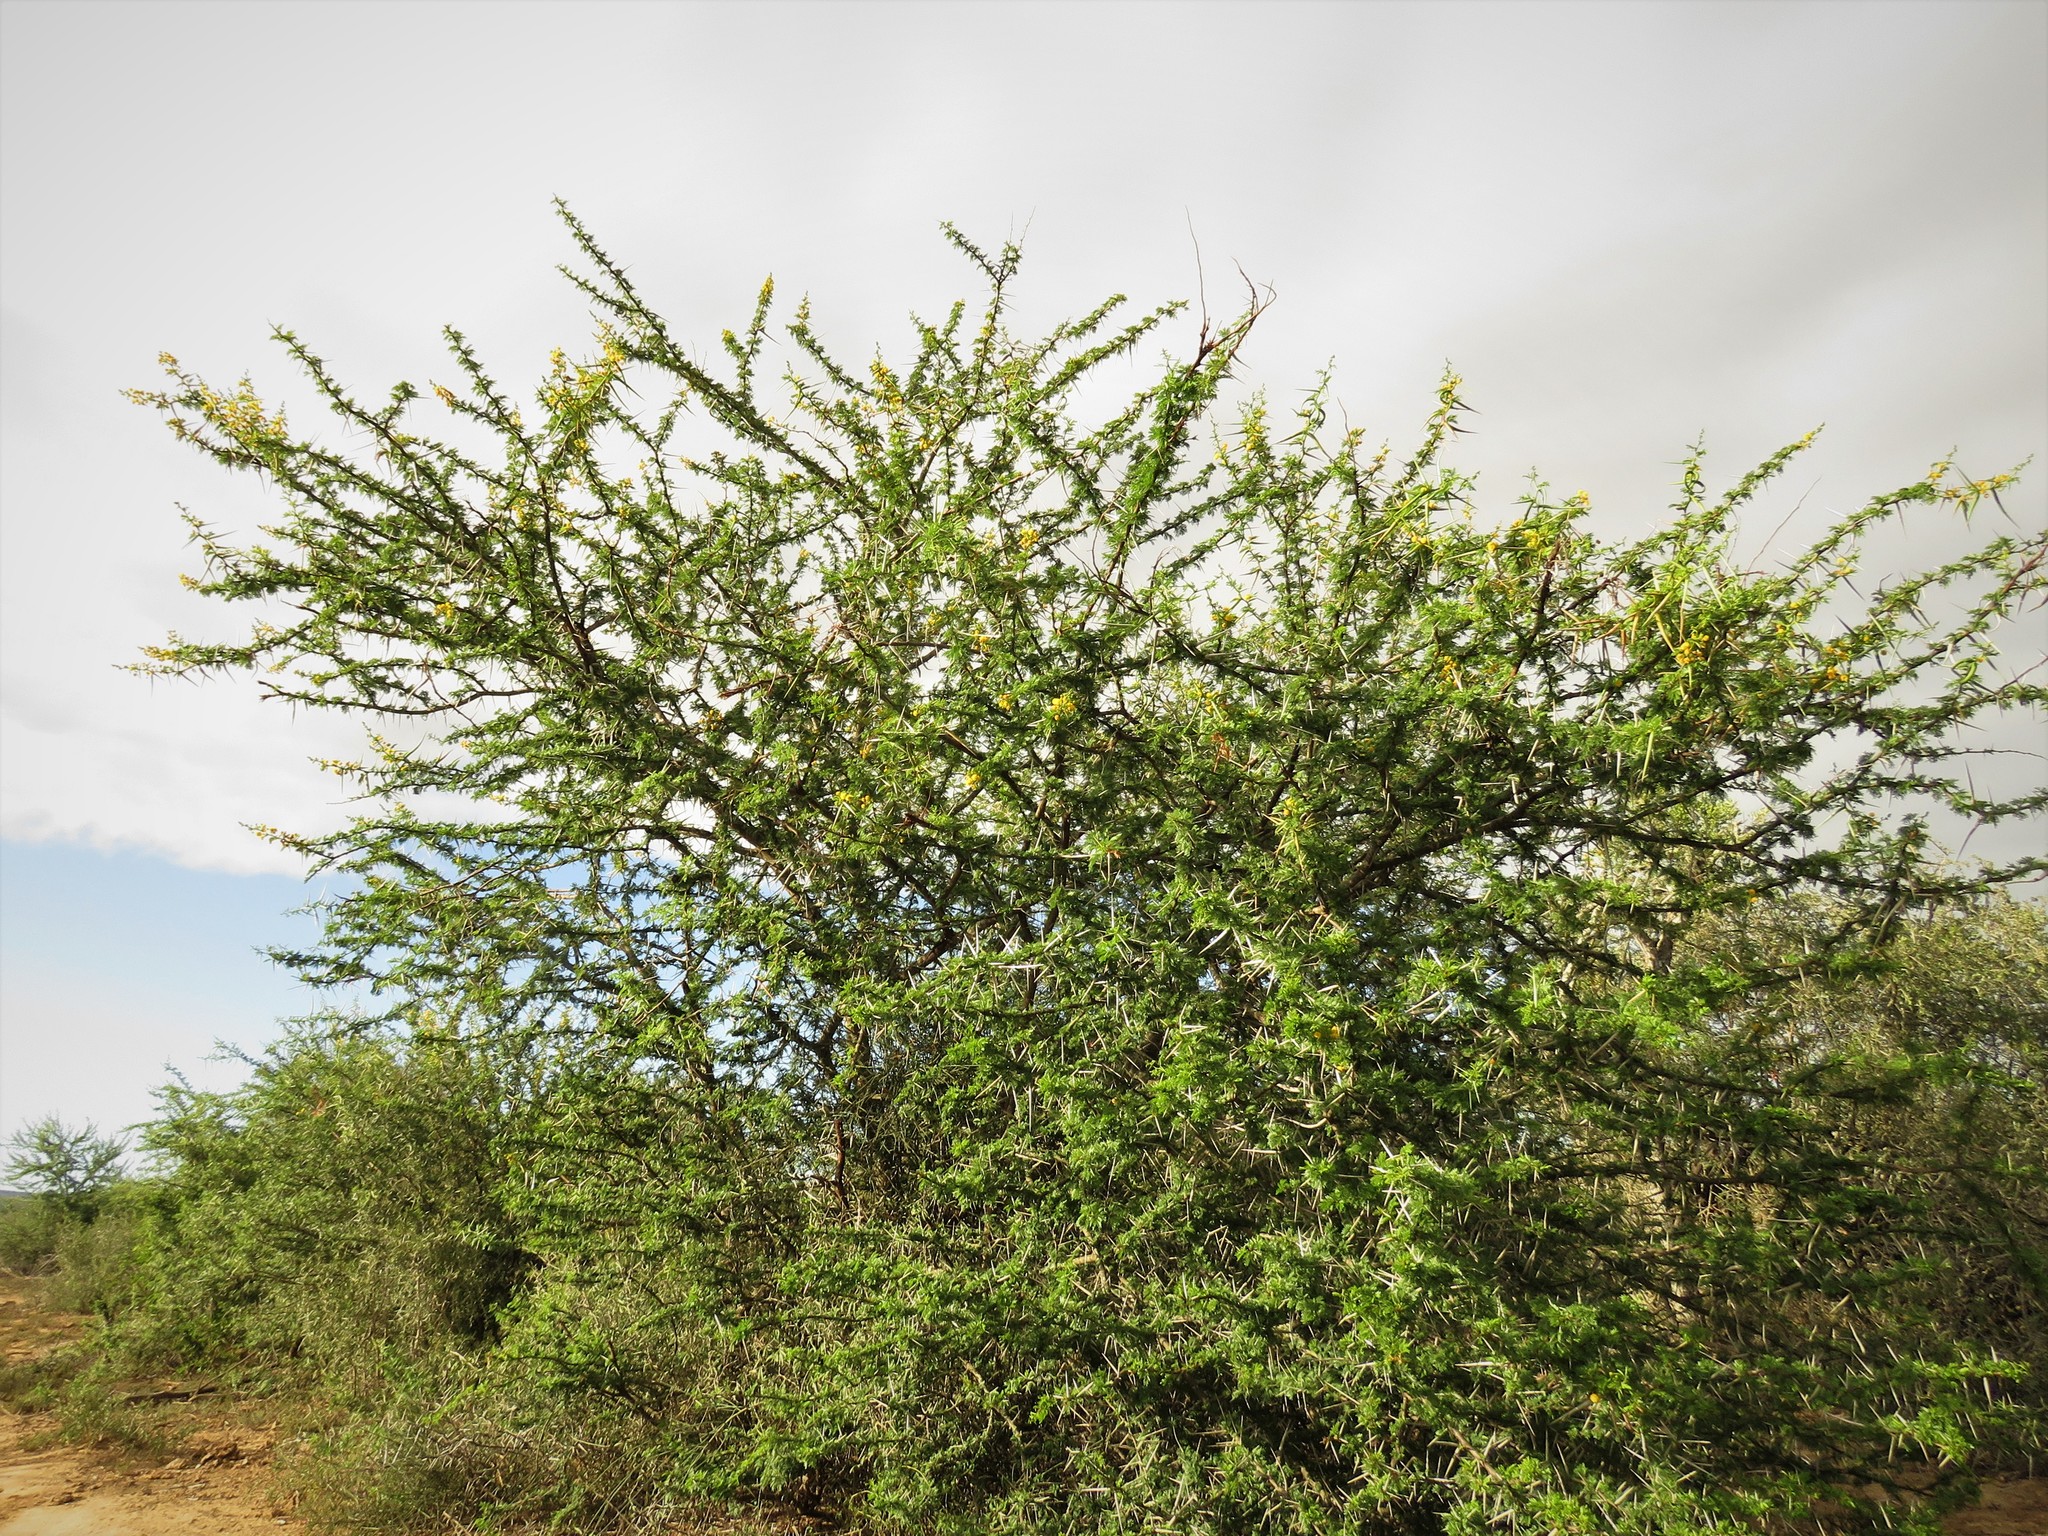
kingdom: Plantae
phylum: Tracheophyta
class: Magnoliopsida
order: Fabales
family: Fabaceae
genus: Vachellia
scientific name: Vachellia karroo
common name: Sweet thorn
